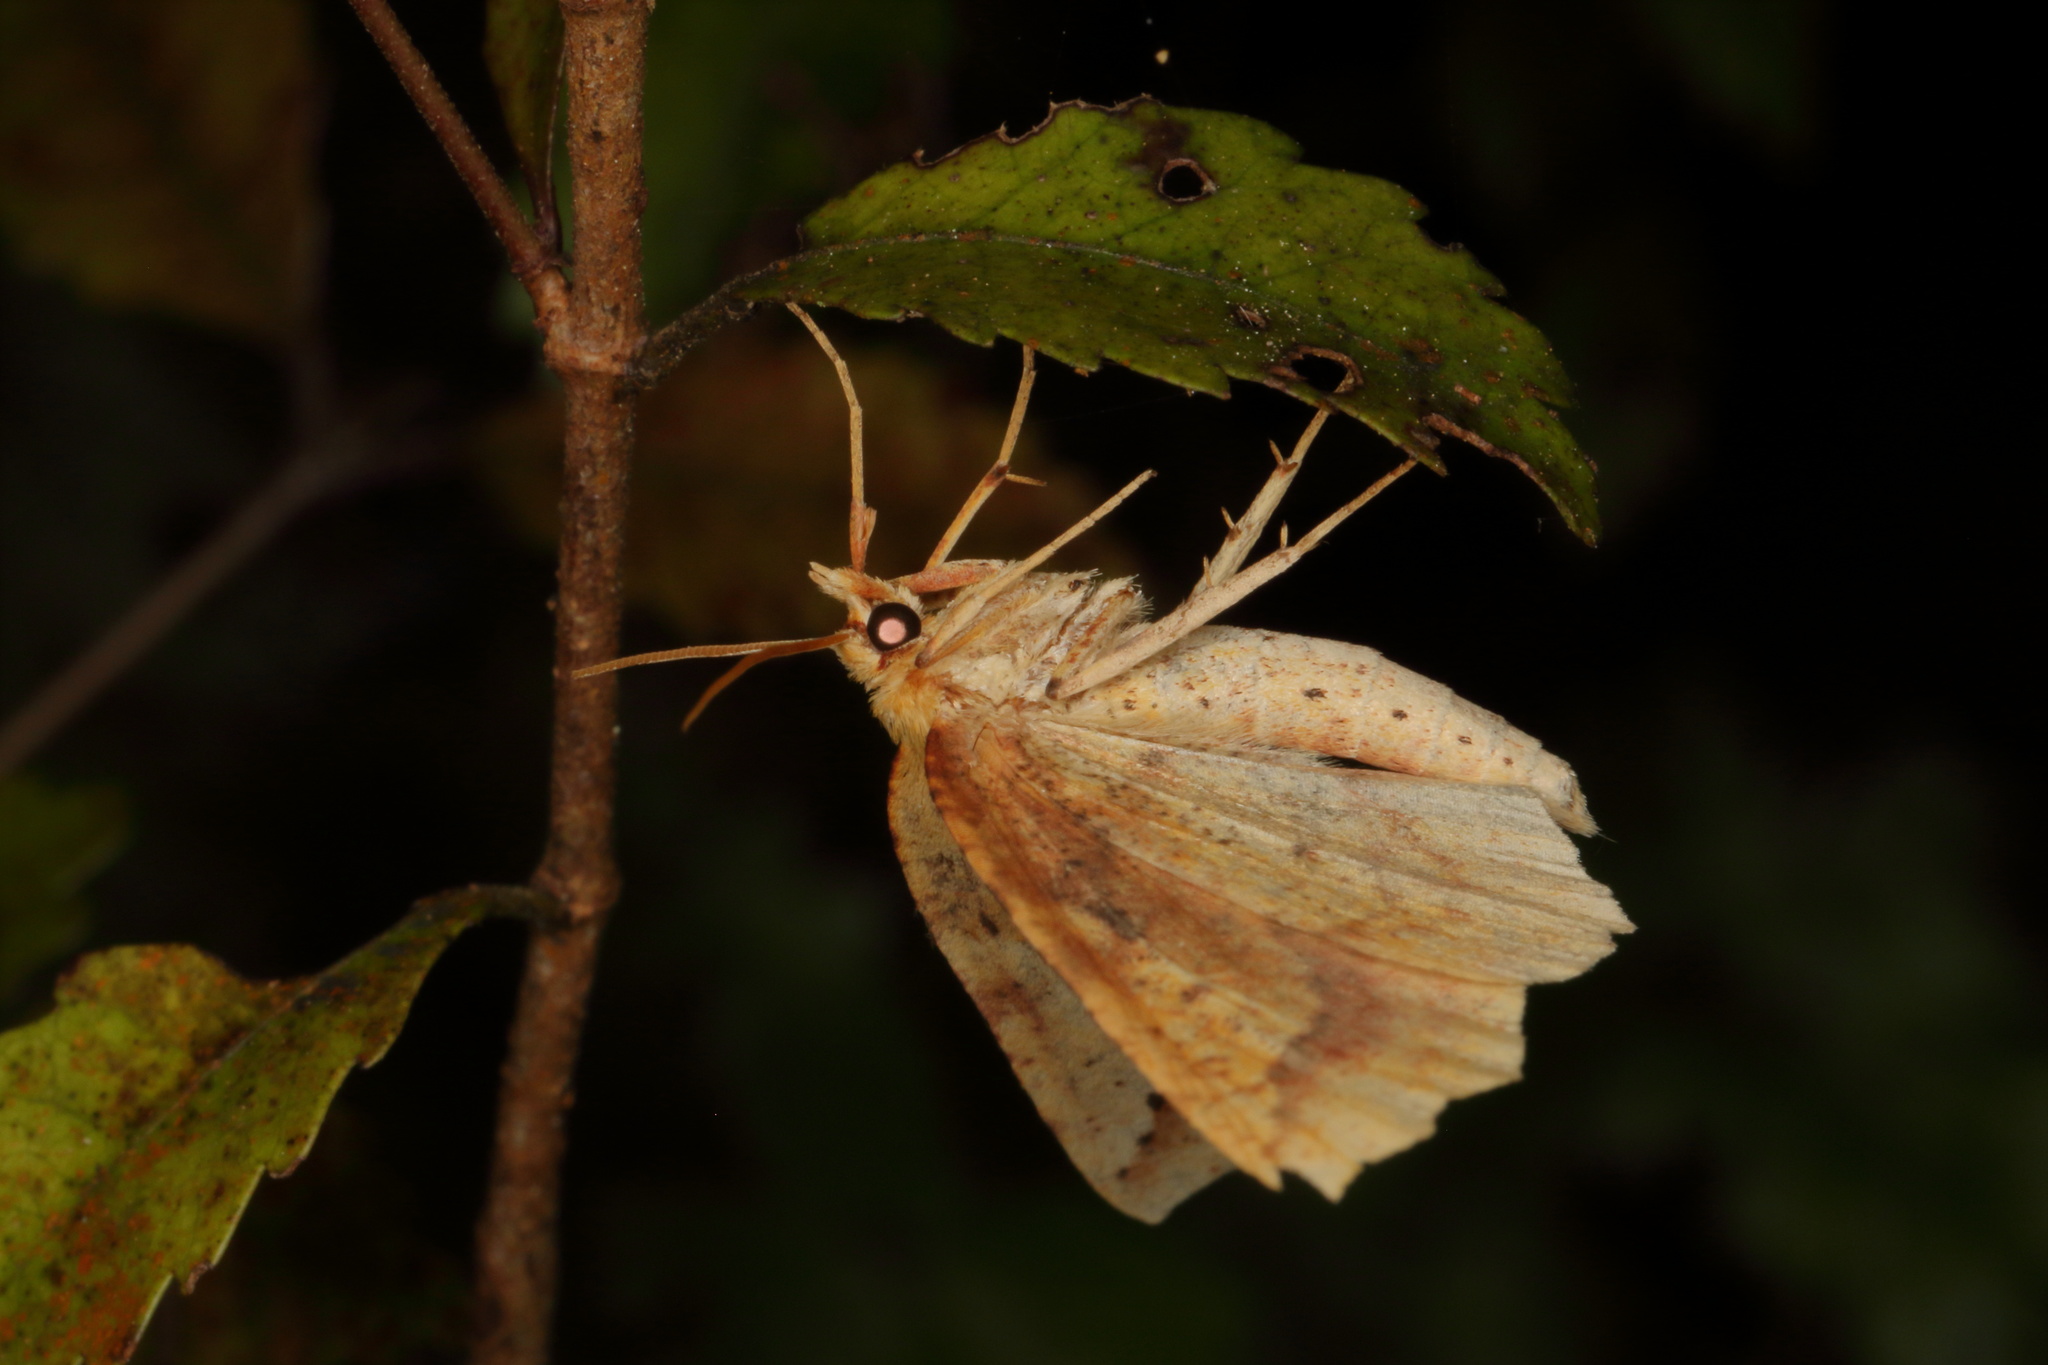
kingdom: Animalia
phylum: Arthropoda
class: Insecta
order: Lepidoptera
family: Geometridae
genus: Ischalis
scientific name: Ischalis variabilis
